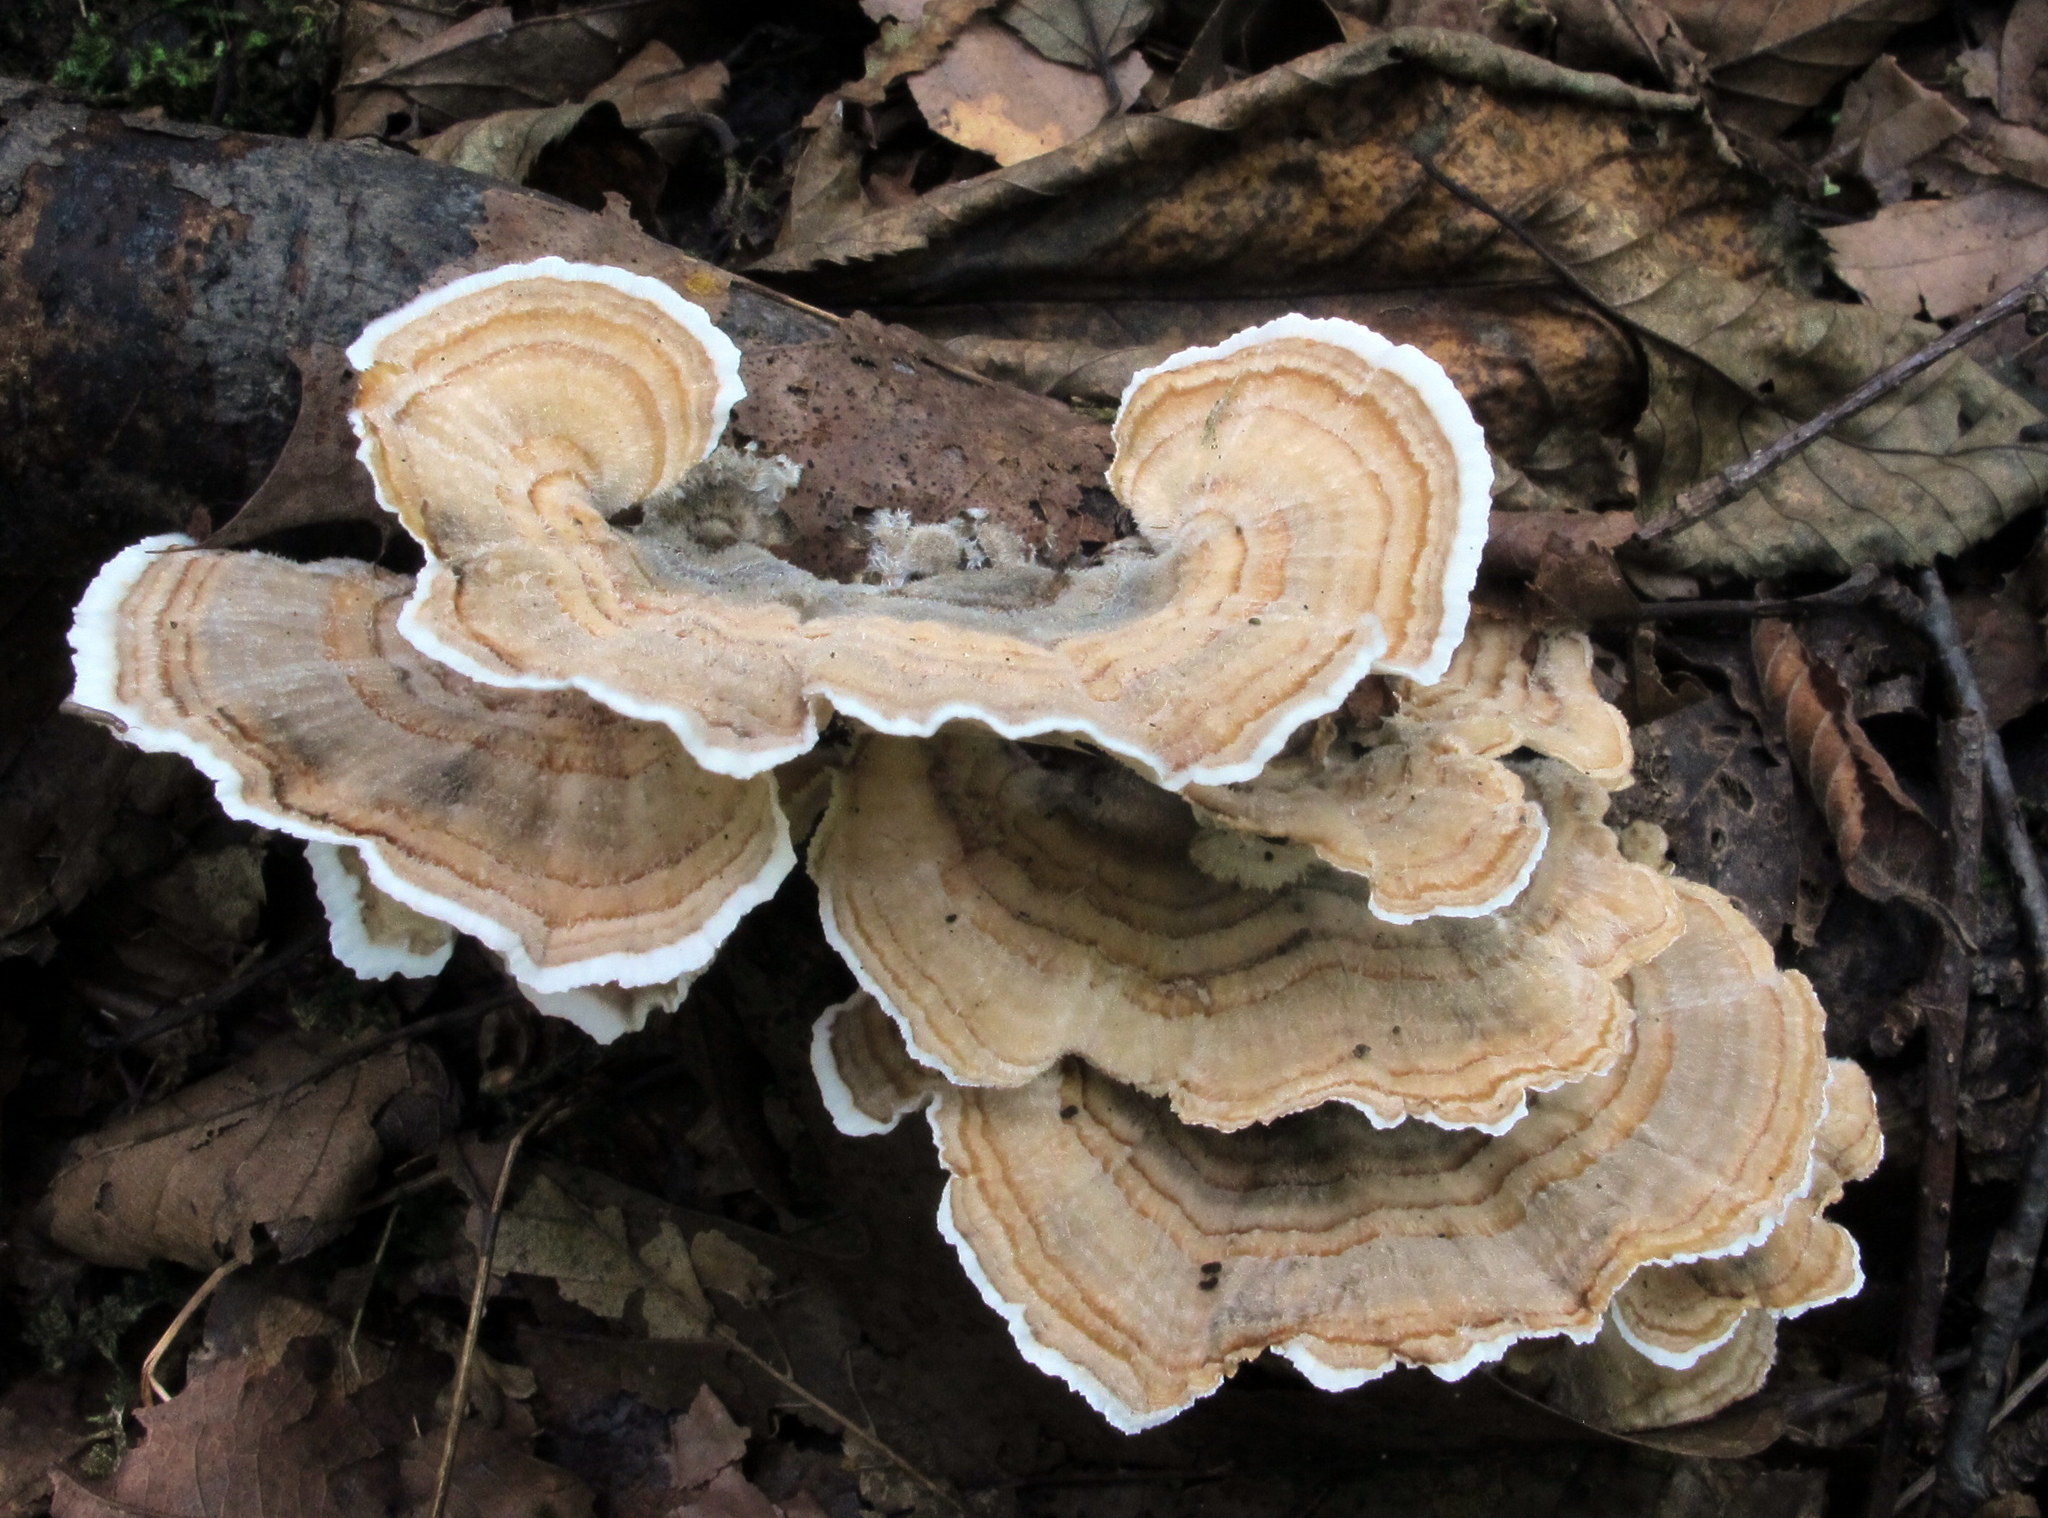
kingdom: Fungi
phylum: Basidiomycota
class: Agaricomycetes
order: Polyporales
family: Polyporaceae
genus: Trametes
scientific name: Trametes versicolor
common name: Turkeytail
